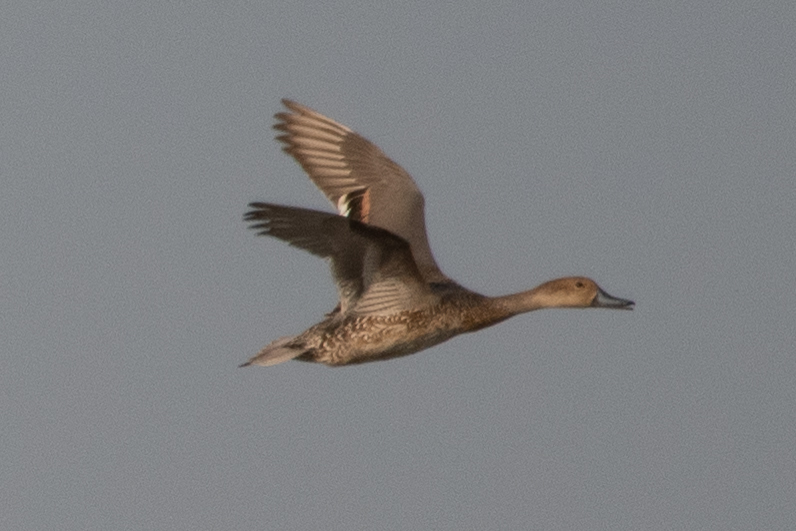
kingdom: Animalia
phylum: Chordata
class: Aves
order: Anseriformes
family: Anatidae
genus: Anas
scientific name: Anas acuta
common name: Northern pintail
